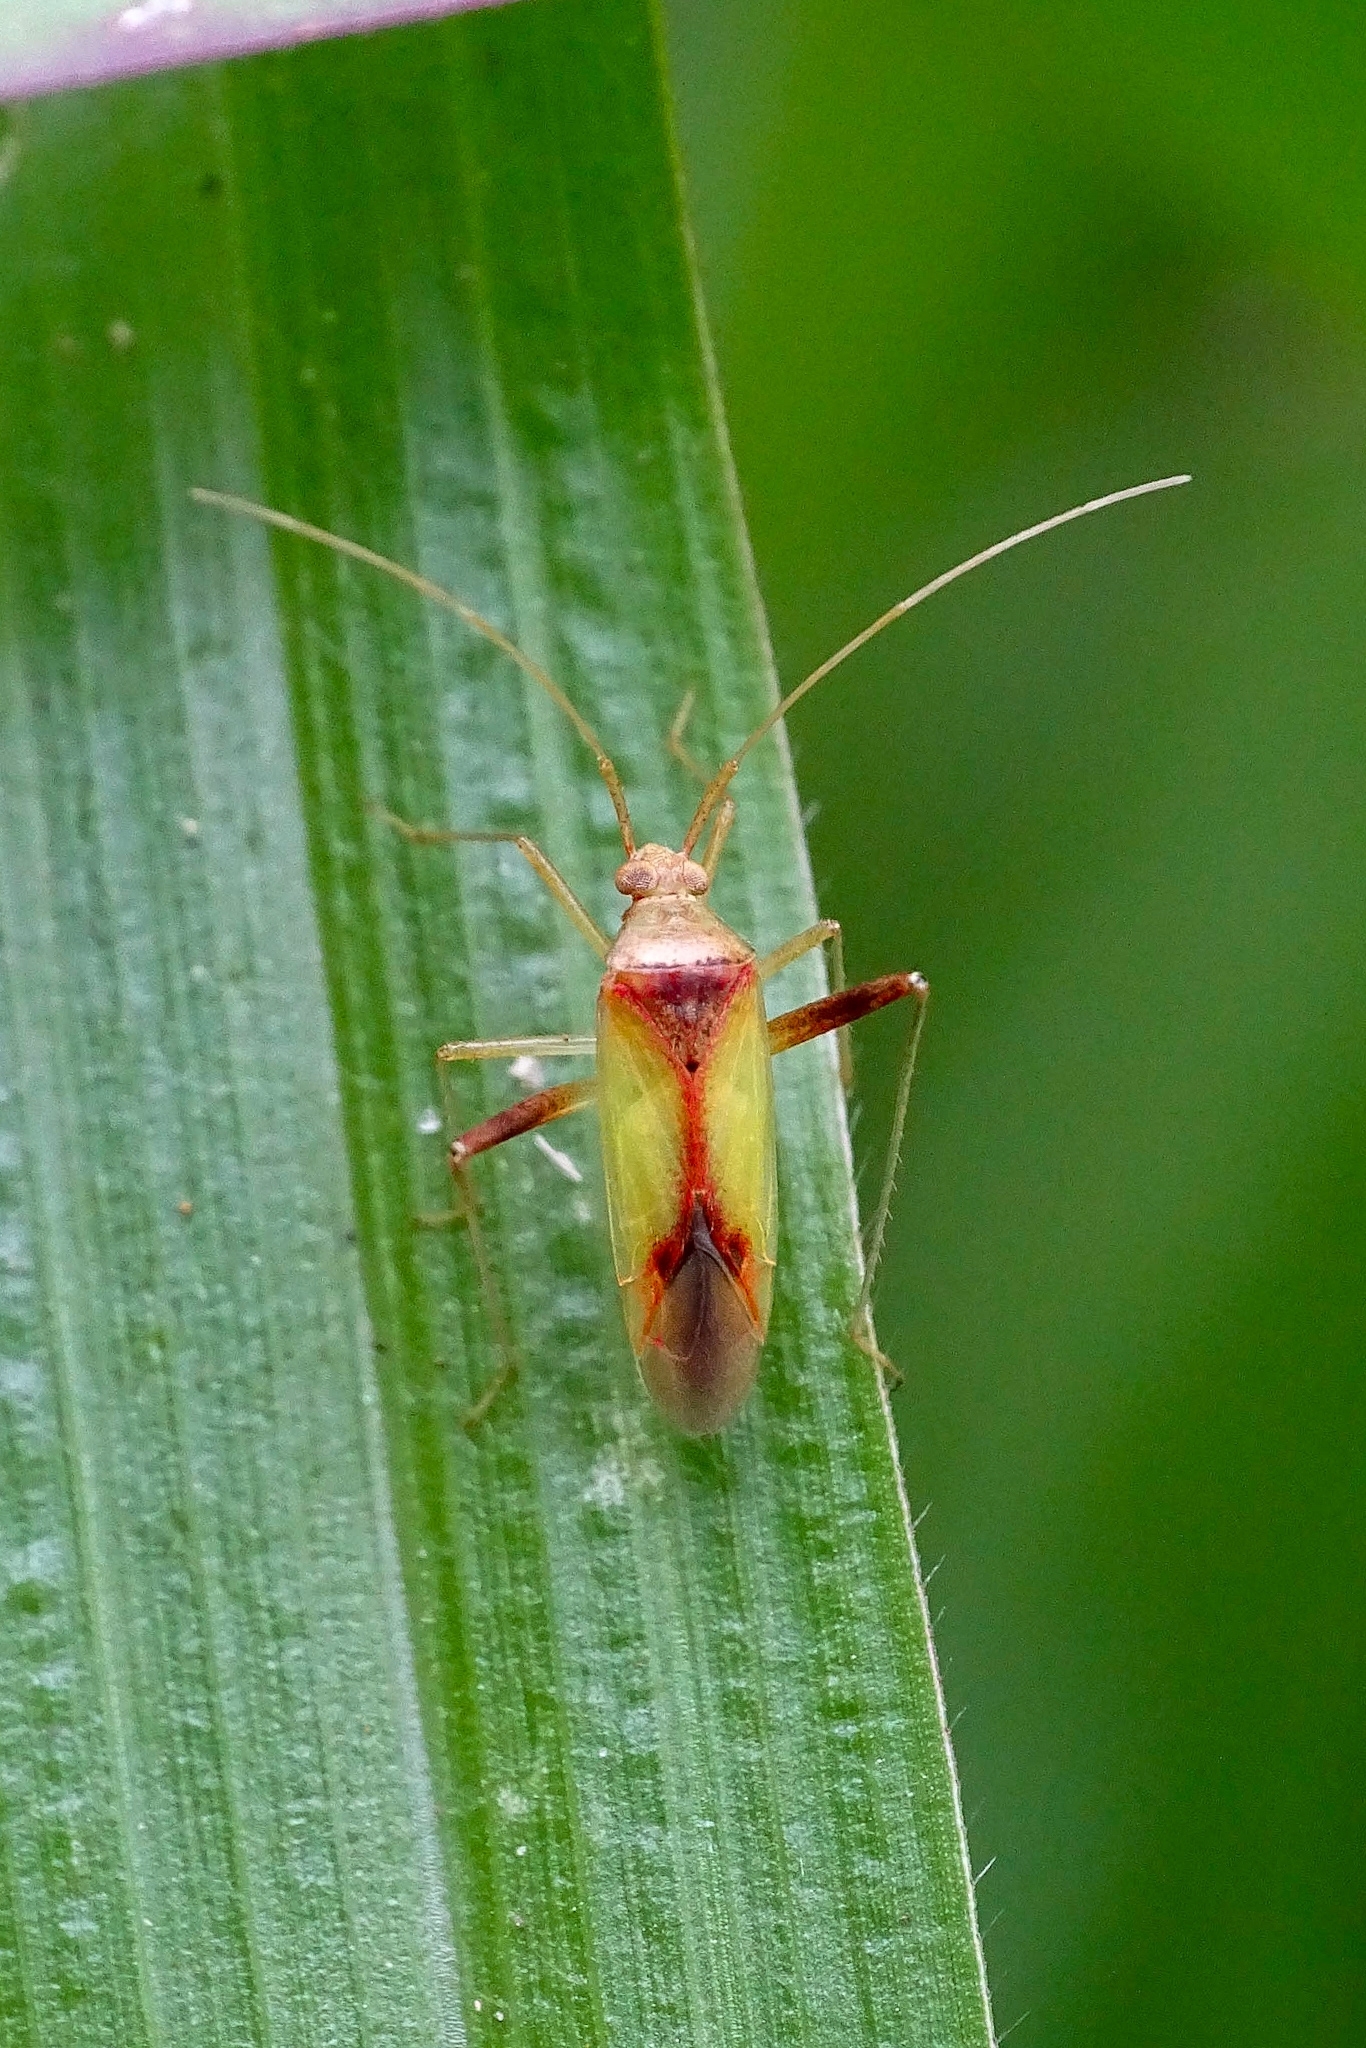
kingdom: Animalia
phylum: Arthropoda
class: Insecta
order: Hemiptera
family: Miridae
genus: Creontiades
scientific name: Creontiades pacificus
